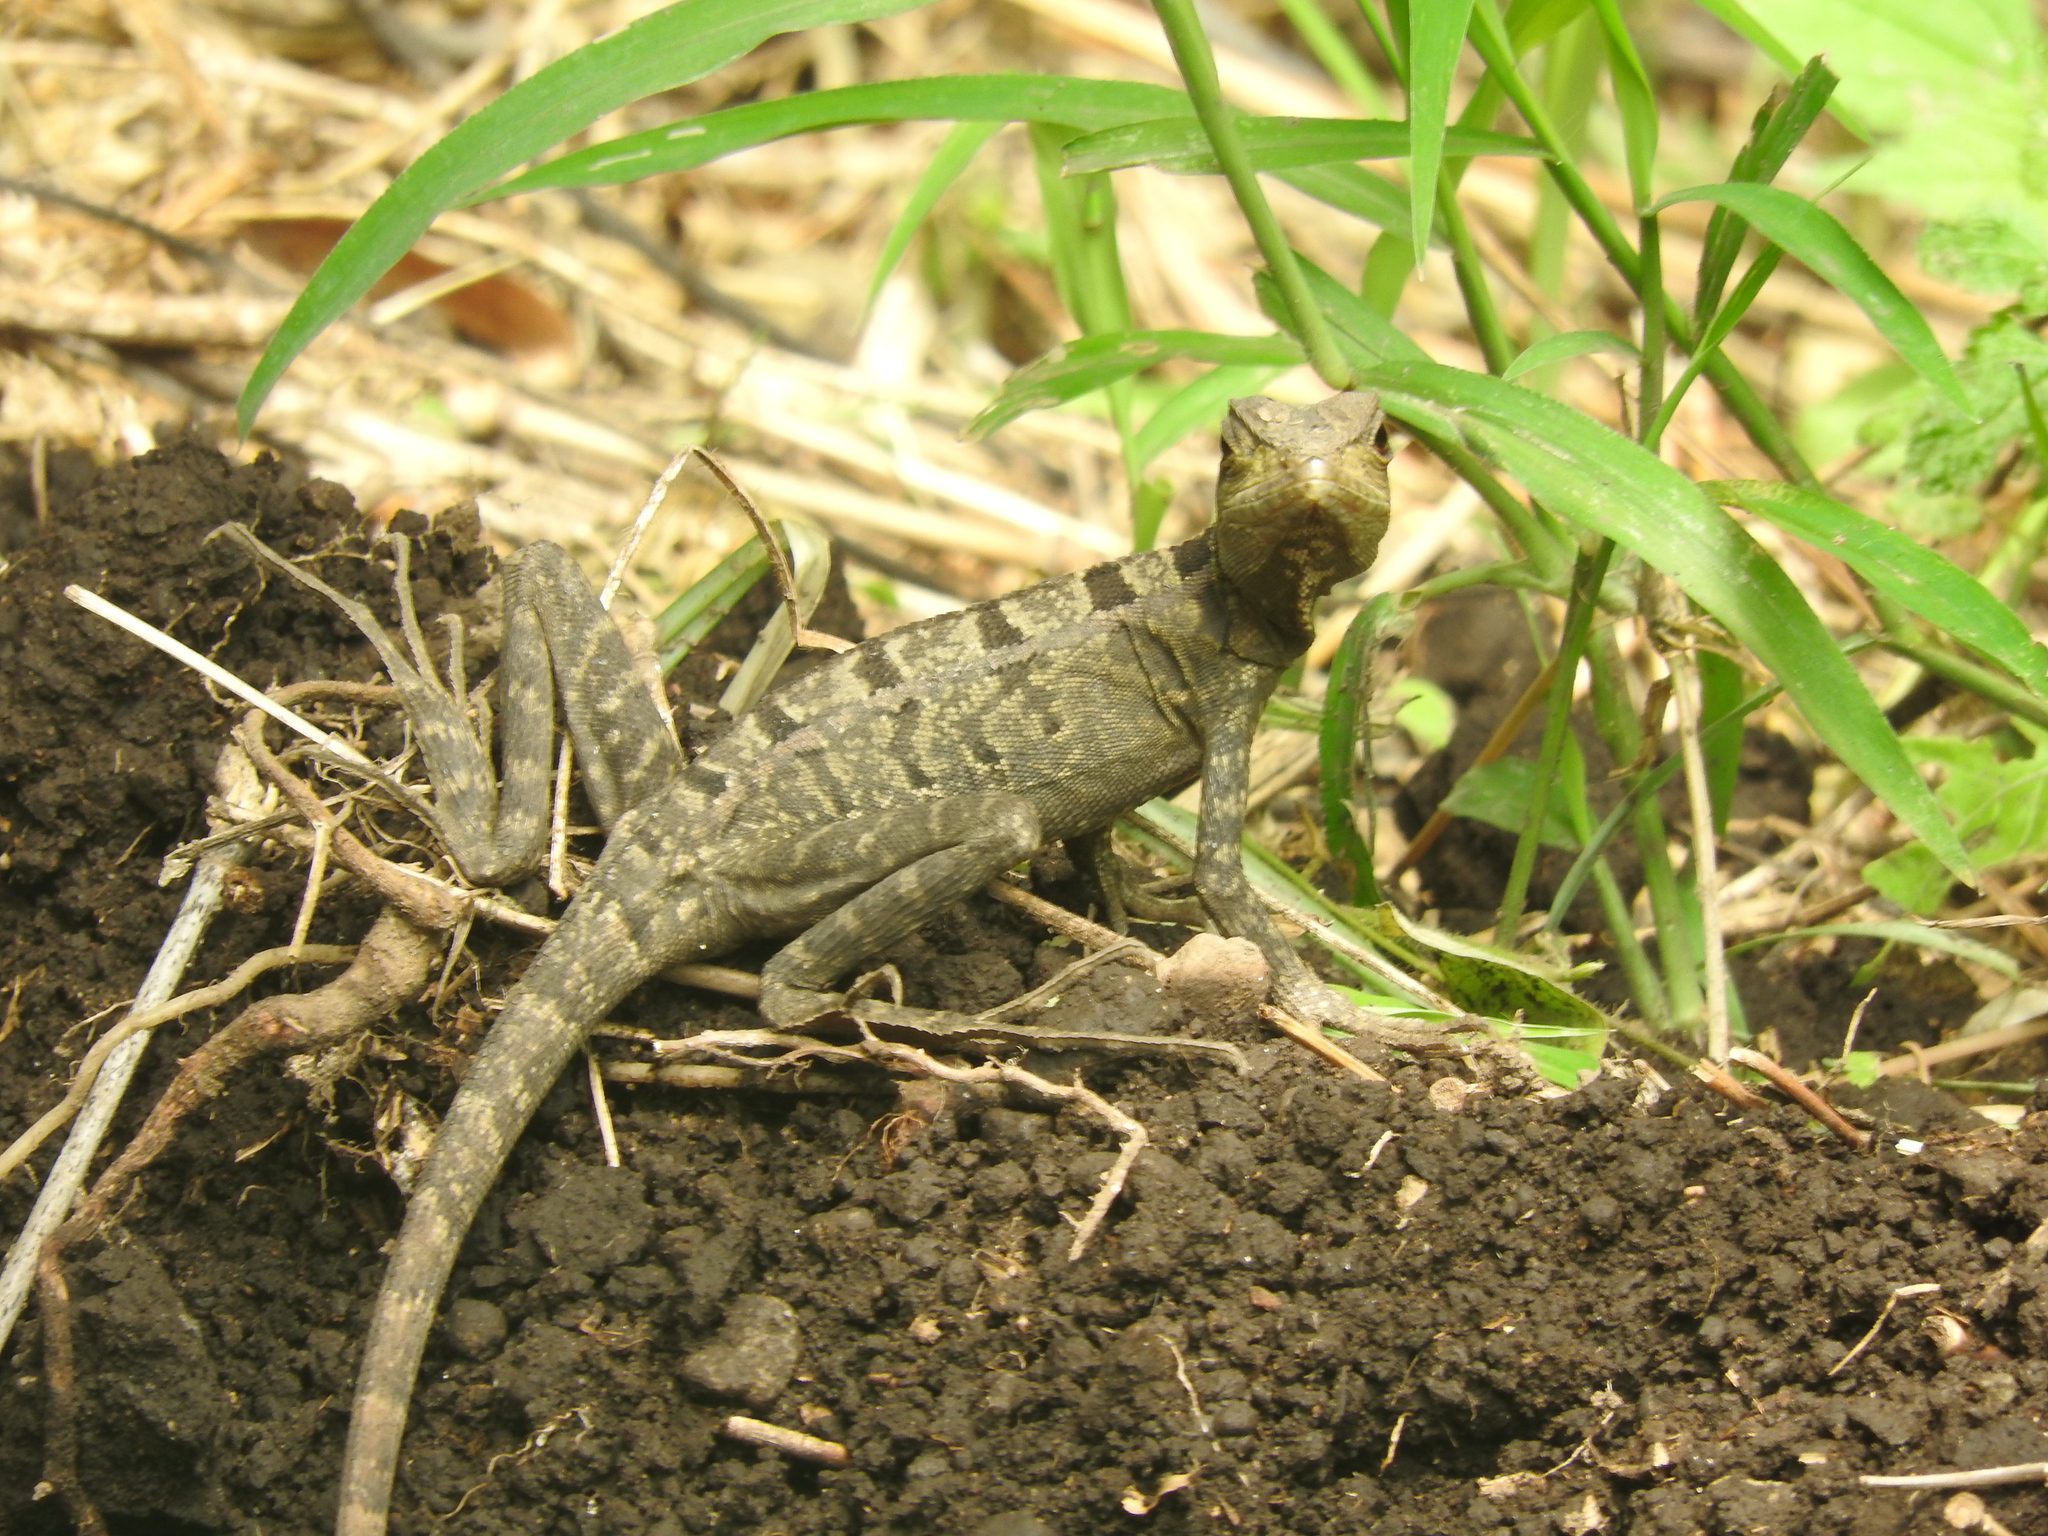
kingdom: Animalia
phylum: Chordata
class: Squamata
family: Corytophanidae
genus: Basiliscus
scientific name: Basiliscus vittatus
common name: Brown basilisk
